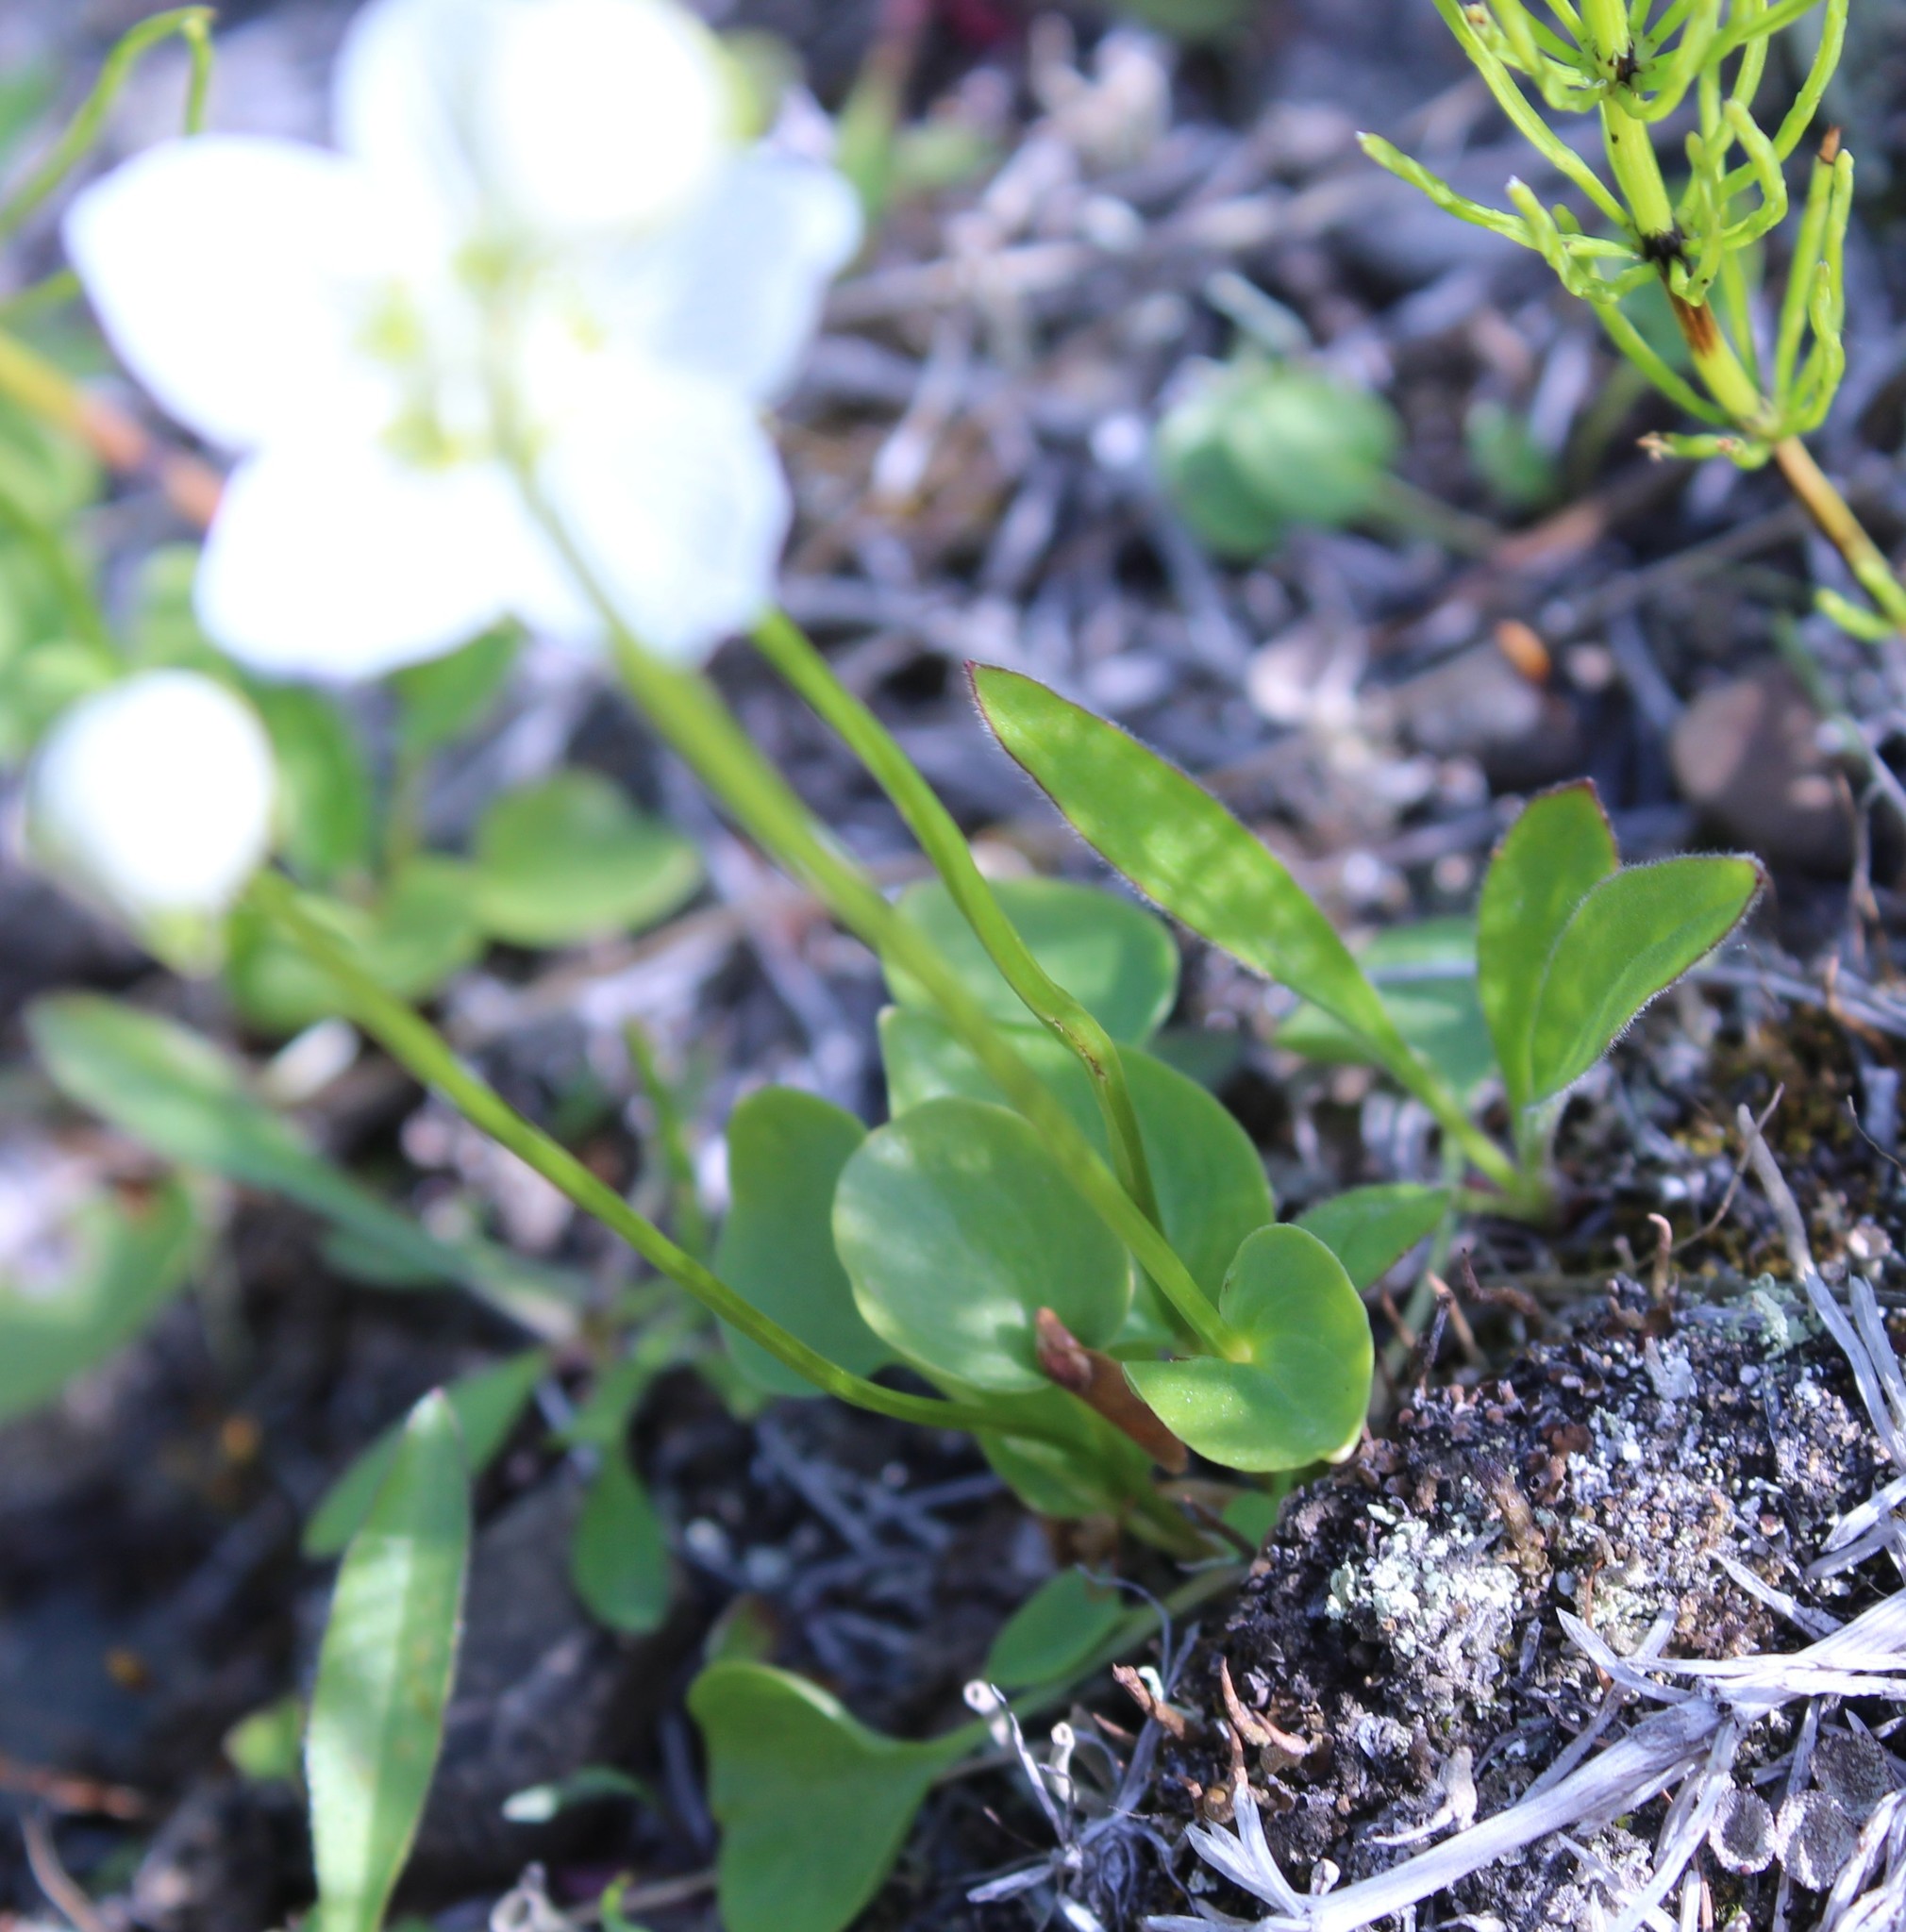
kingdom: Plantae
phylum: Tracheophyta
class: Magnoliopsida
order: Celastrales
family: Parnassiaceae
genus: Parnassia
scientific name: Parnassia palustris
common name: Grass-of-parnassus
